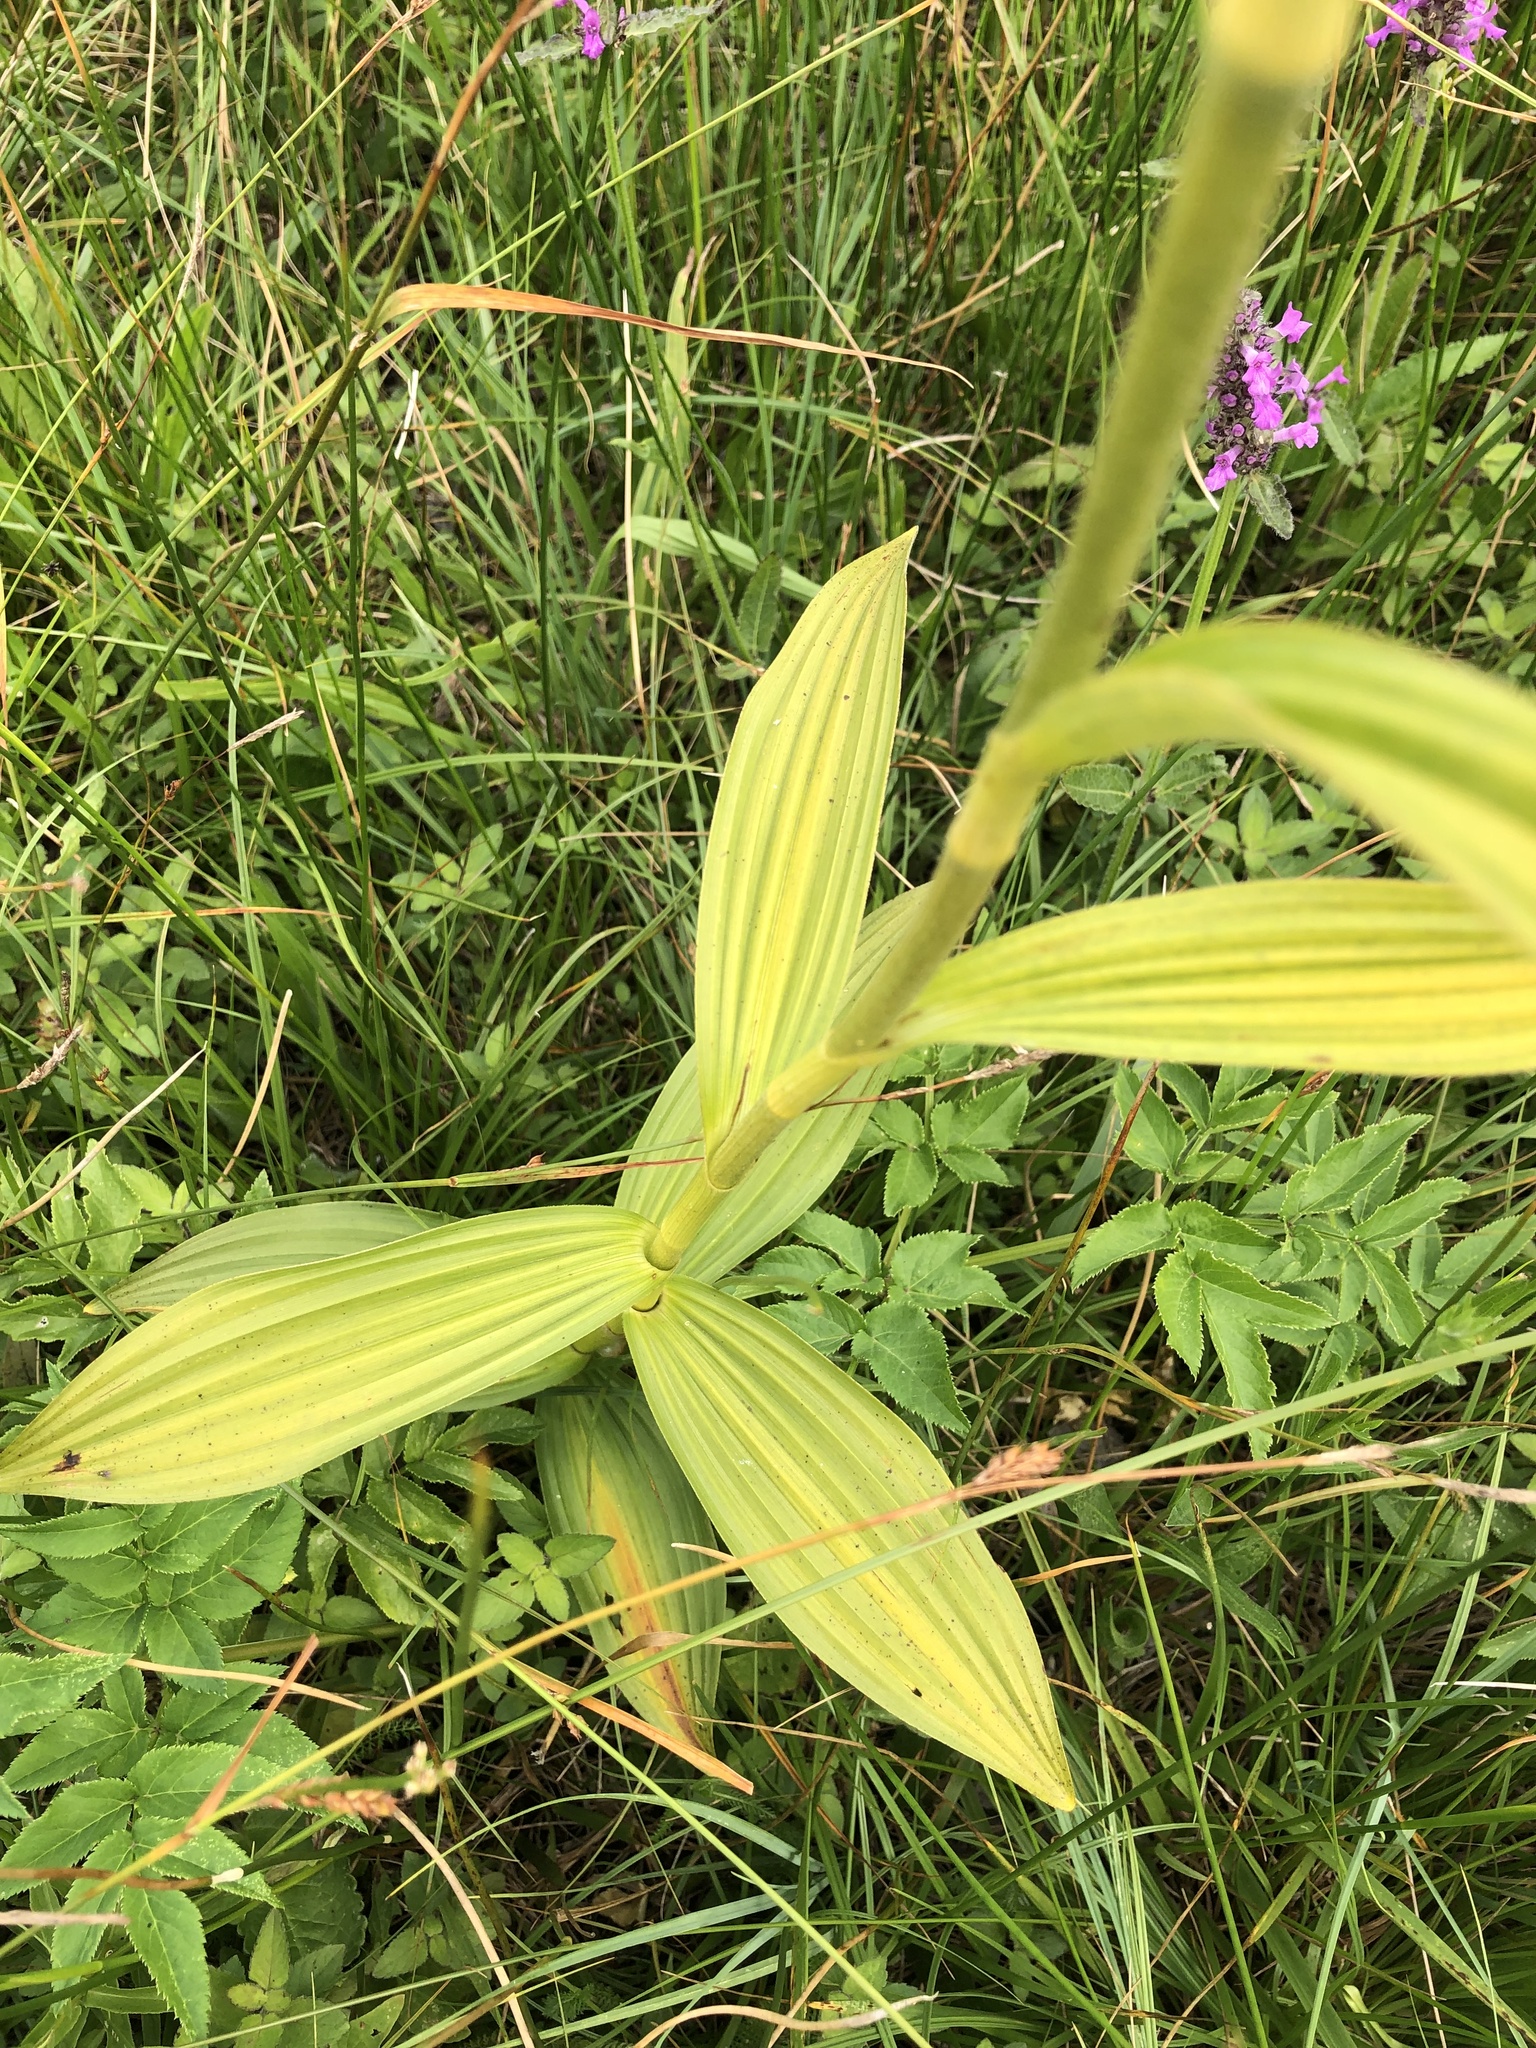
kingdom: Plantae
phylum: Tracheophyta
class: Liliopsida
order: Liliales
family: Melanthiaceae
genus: Veratrum
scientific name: Veratrum album
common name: White veratrum
